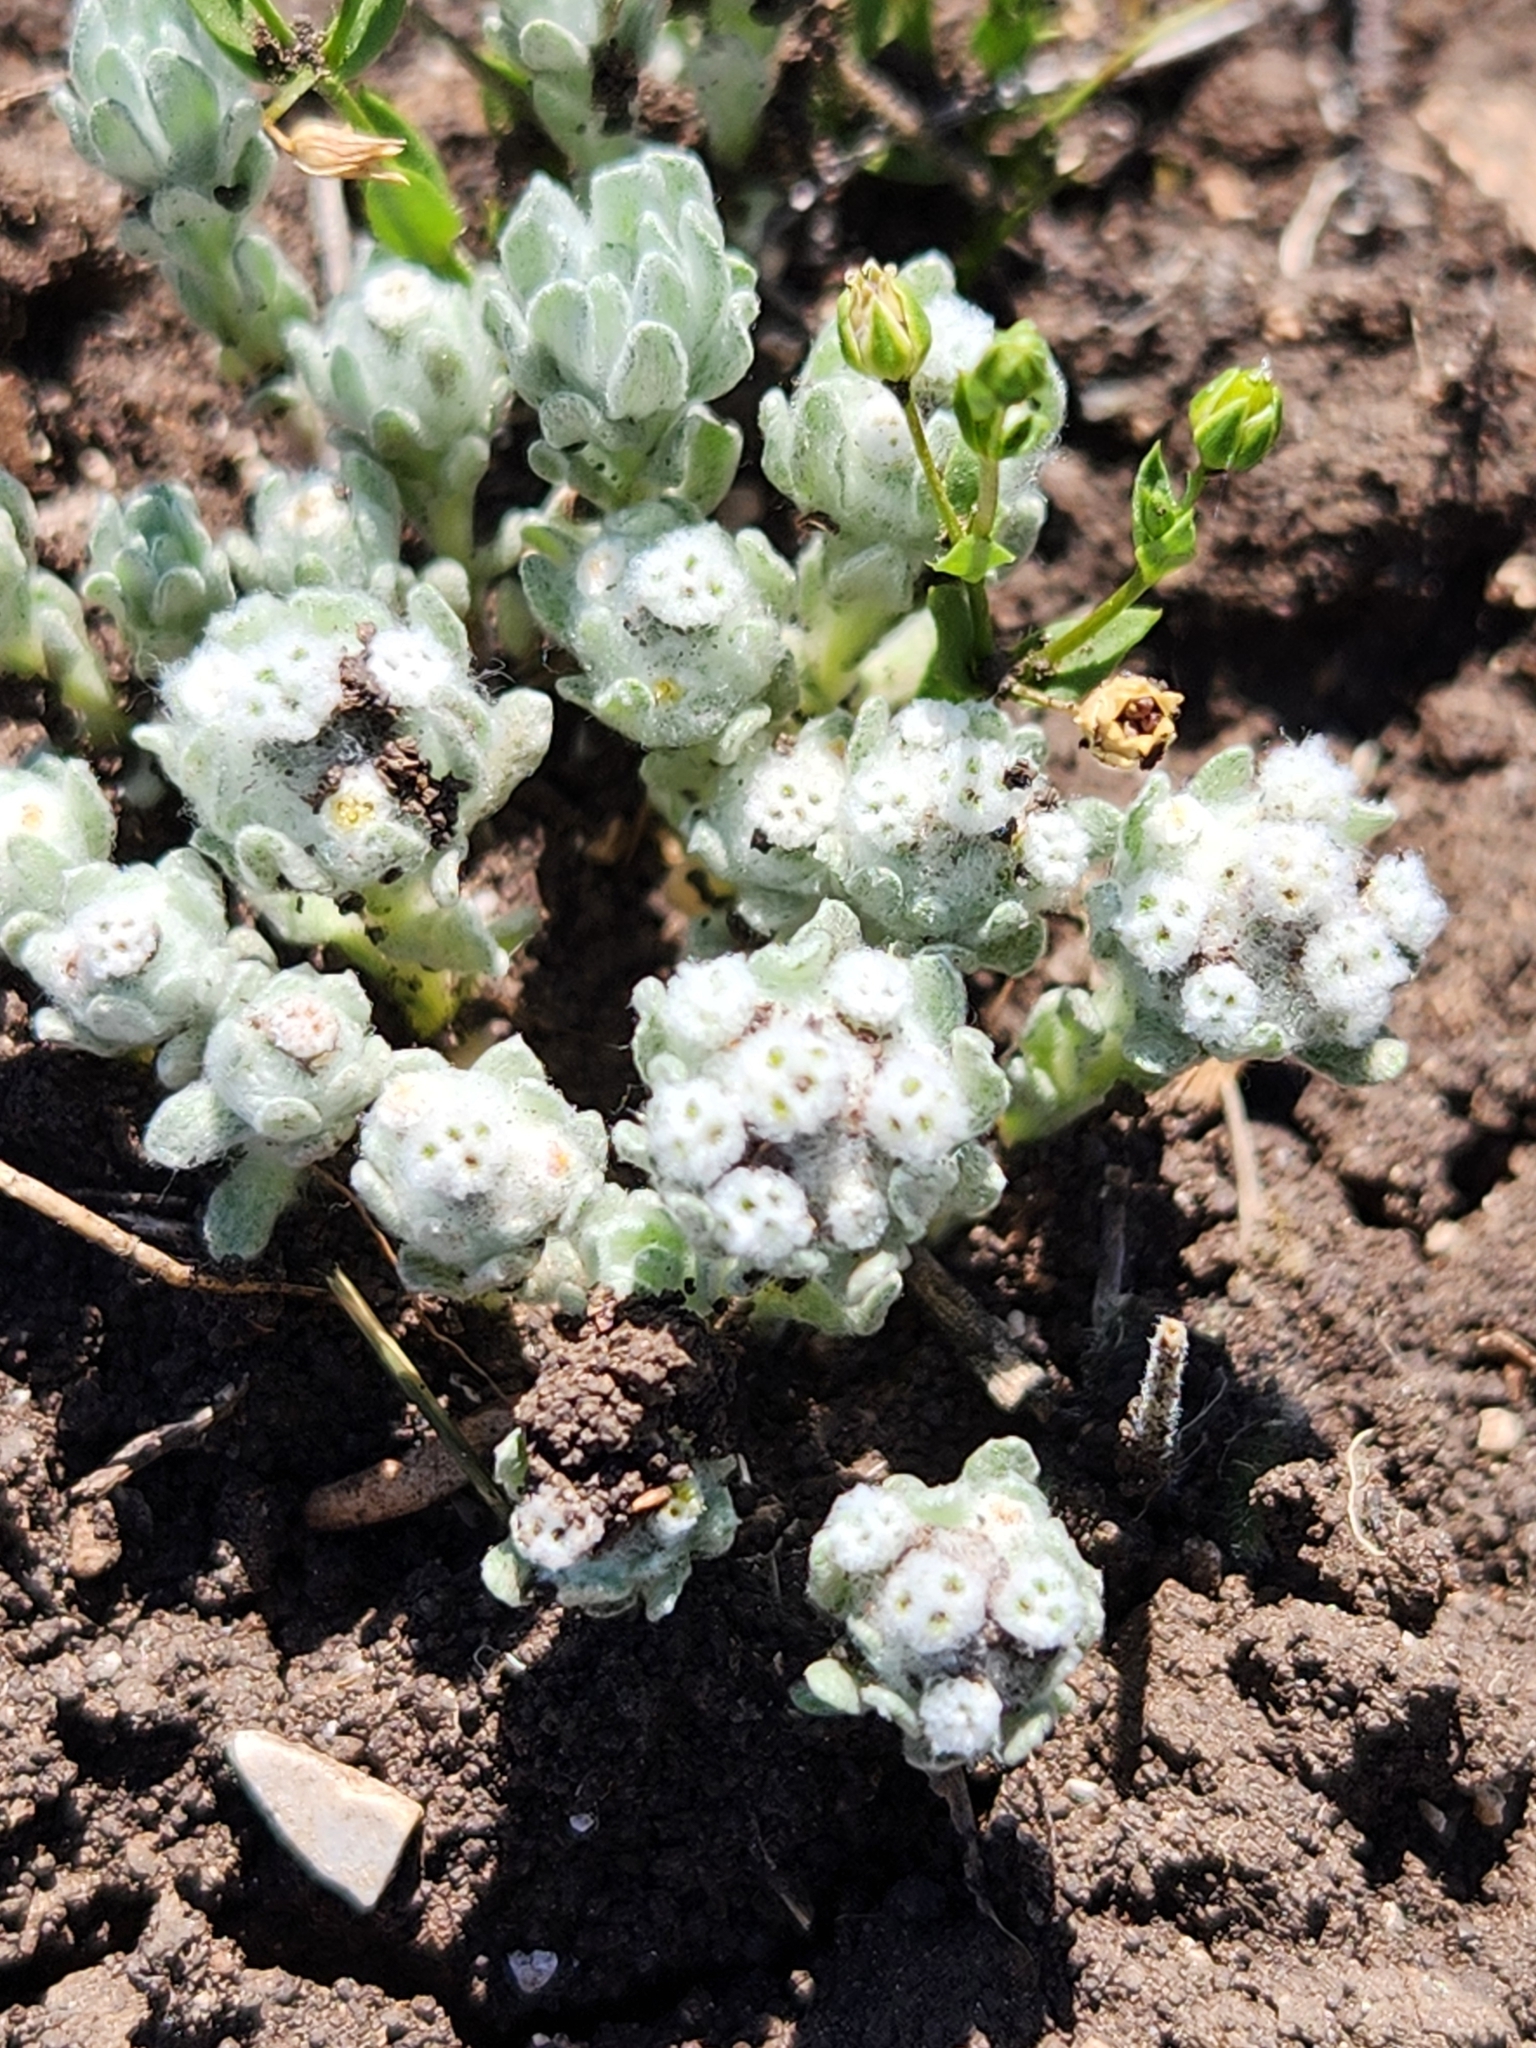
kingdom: Plantae
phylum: Tracheophyta
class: Magnoliopsida
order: Asterales
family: Asteraceae
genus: Diaperia
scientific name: Diaperia verna
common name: Many-stem rabbit-tobacco
